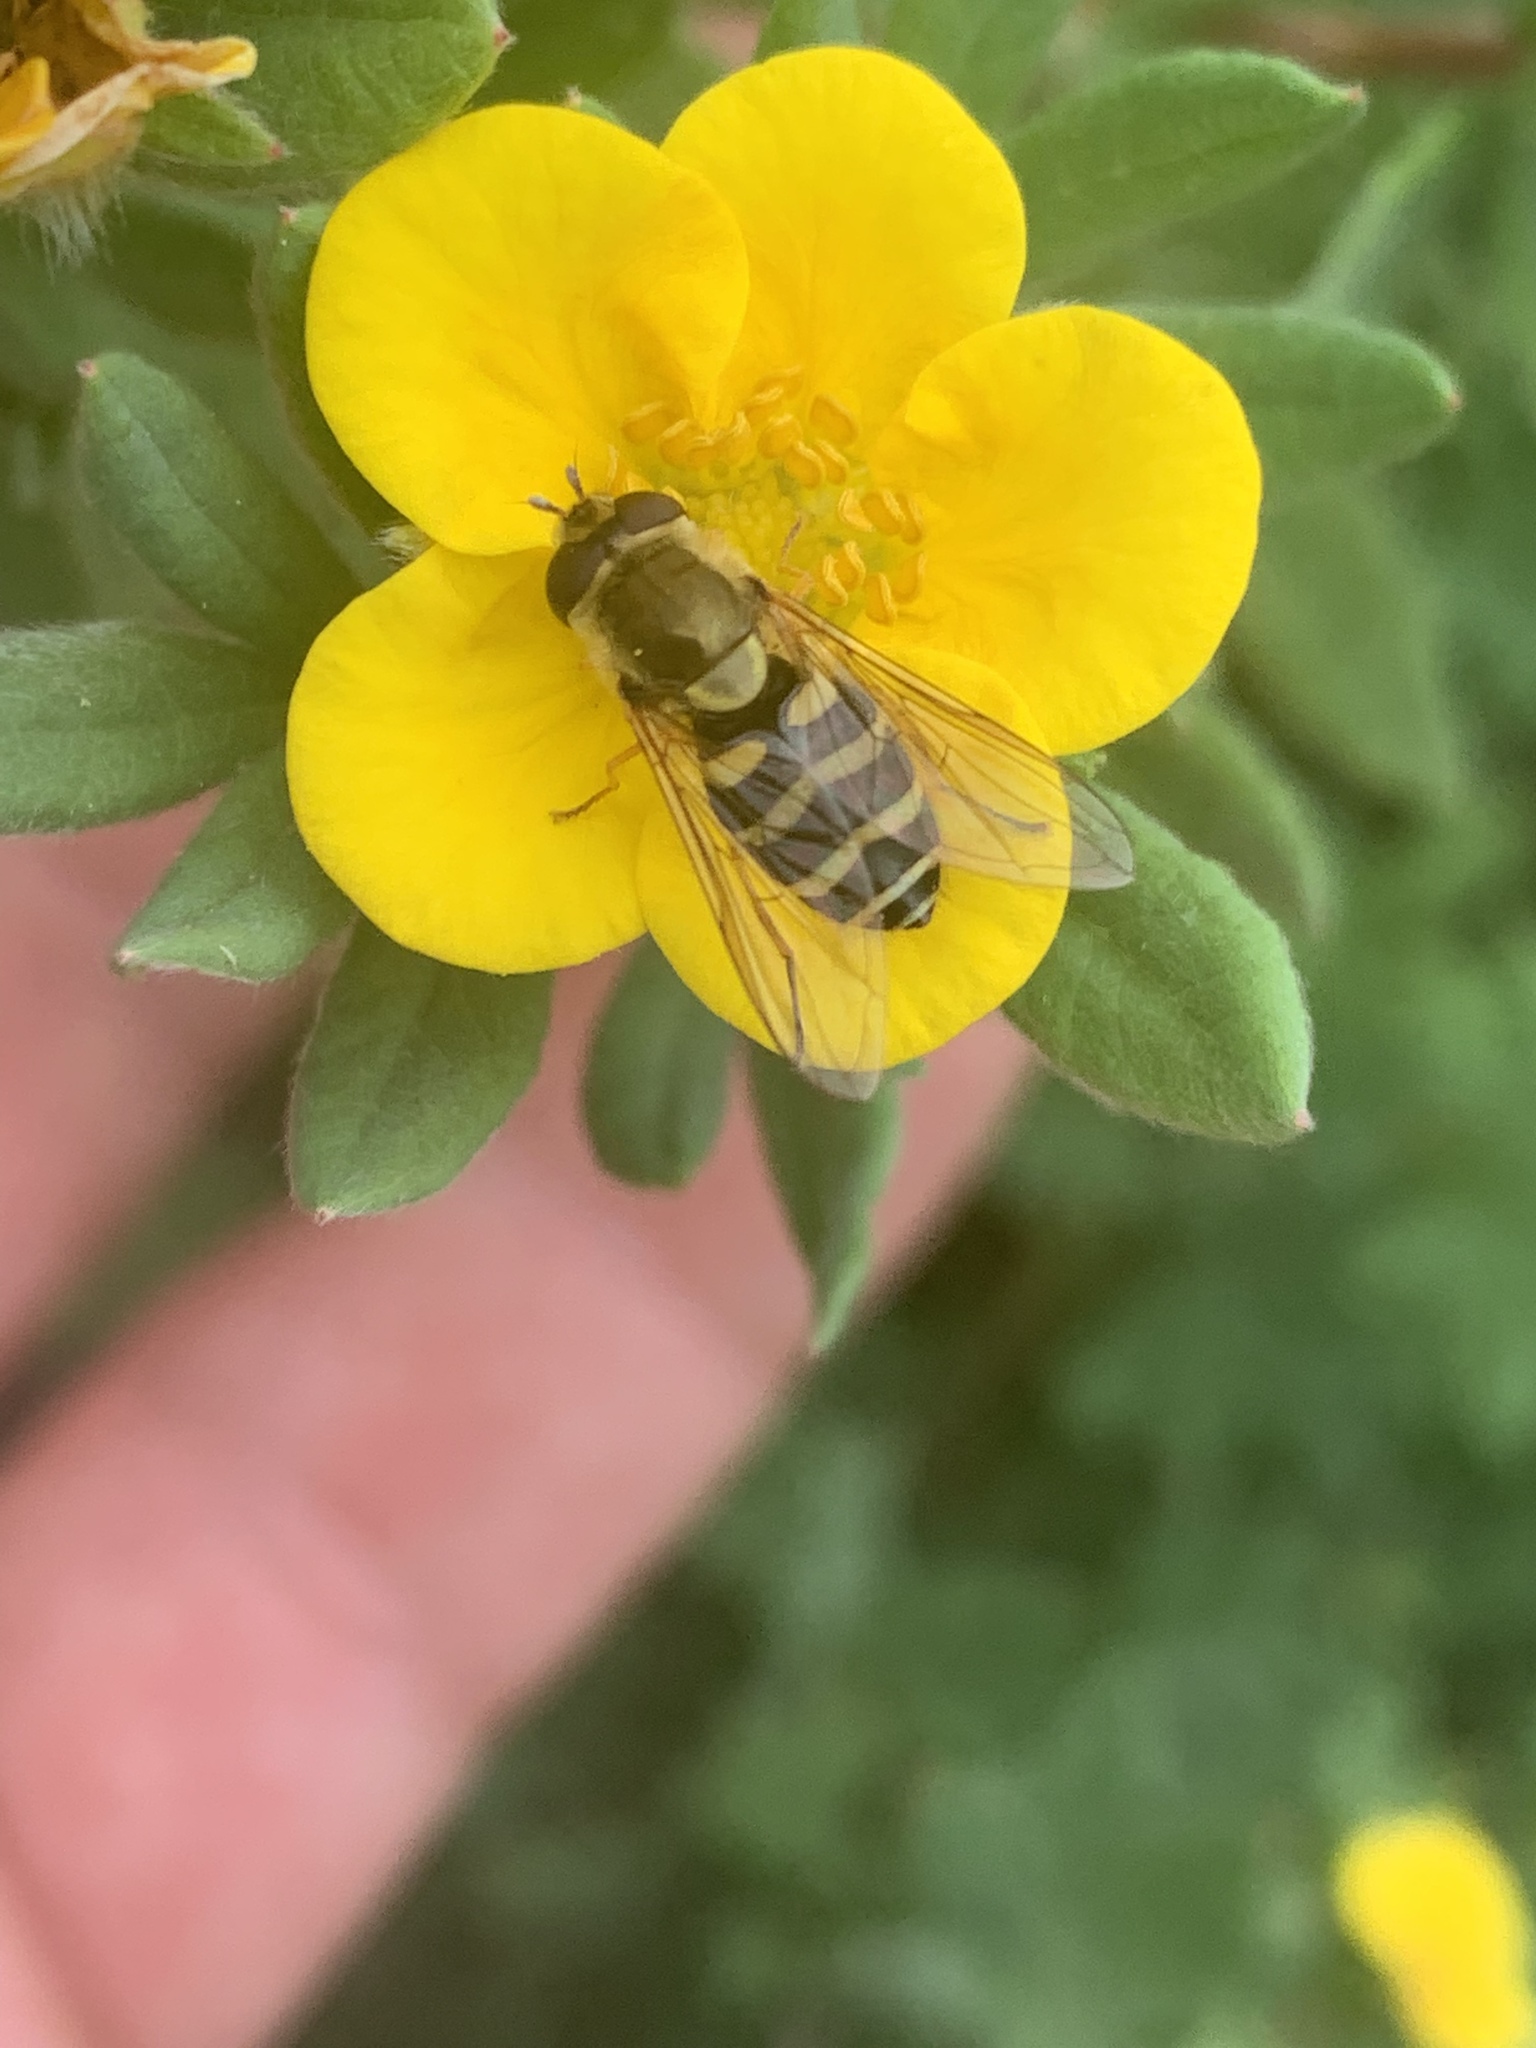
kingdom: Animalia
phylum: Arthropoda
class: Insecta
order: Diptera
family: Syrphidae
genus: Syrphus
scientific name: Syrphus
